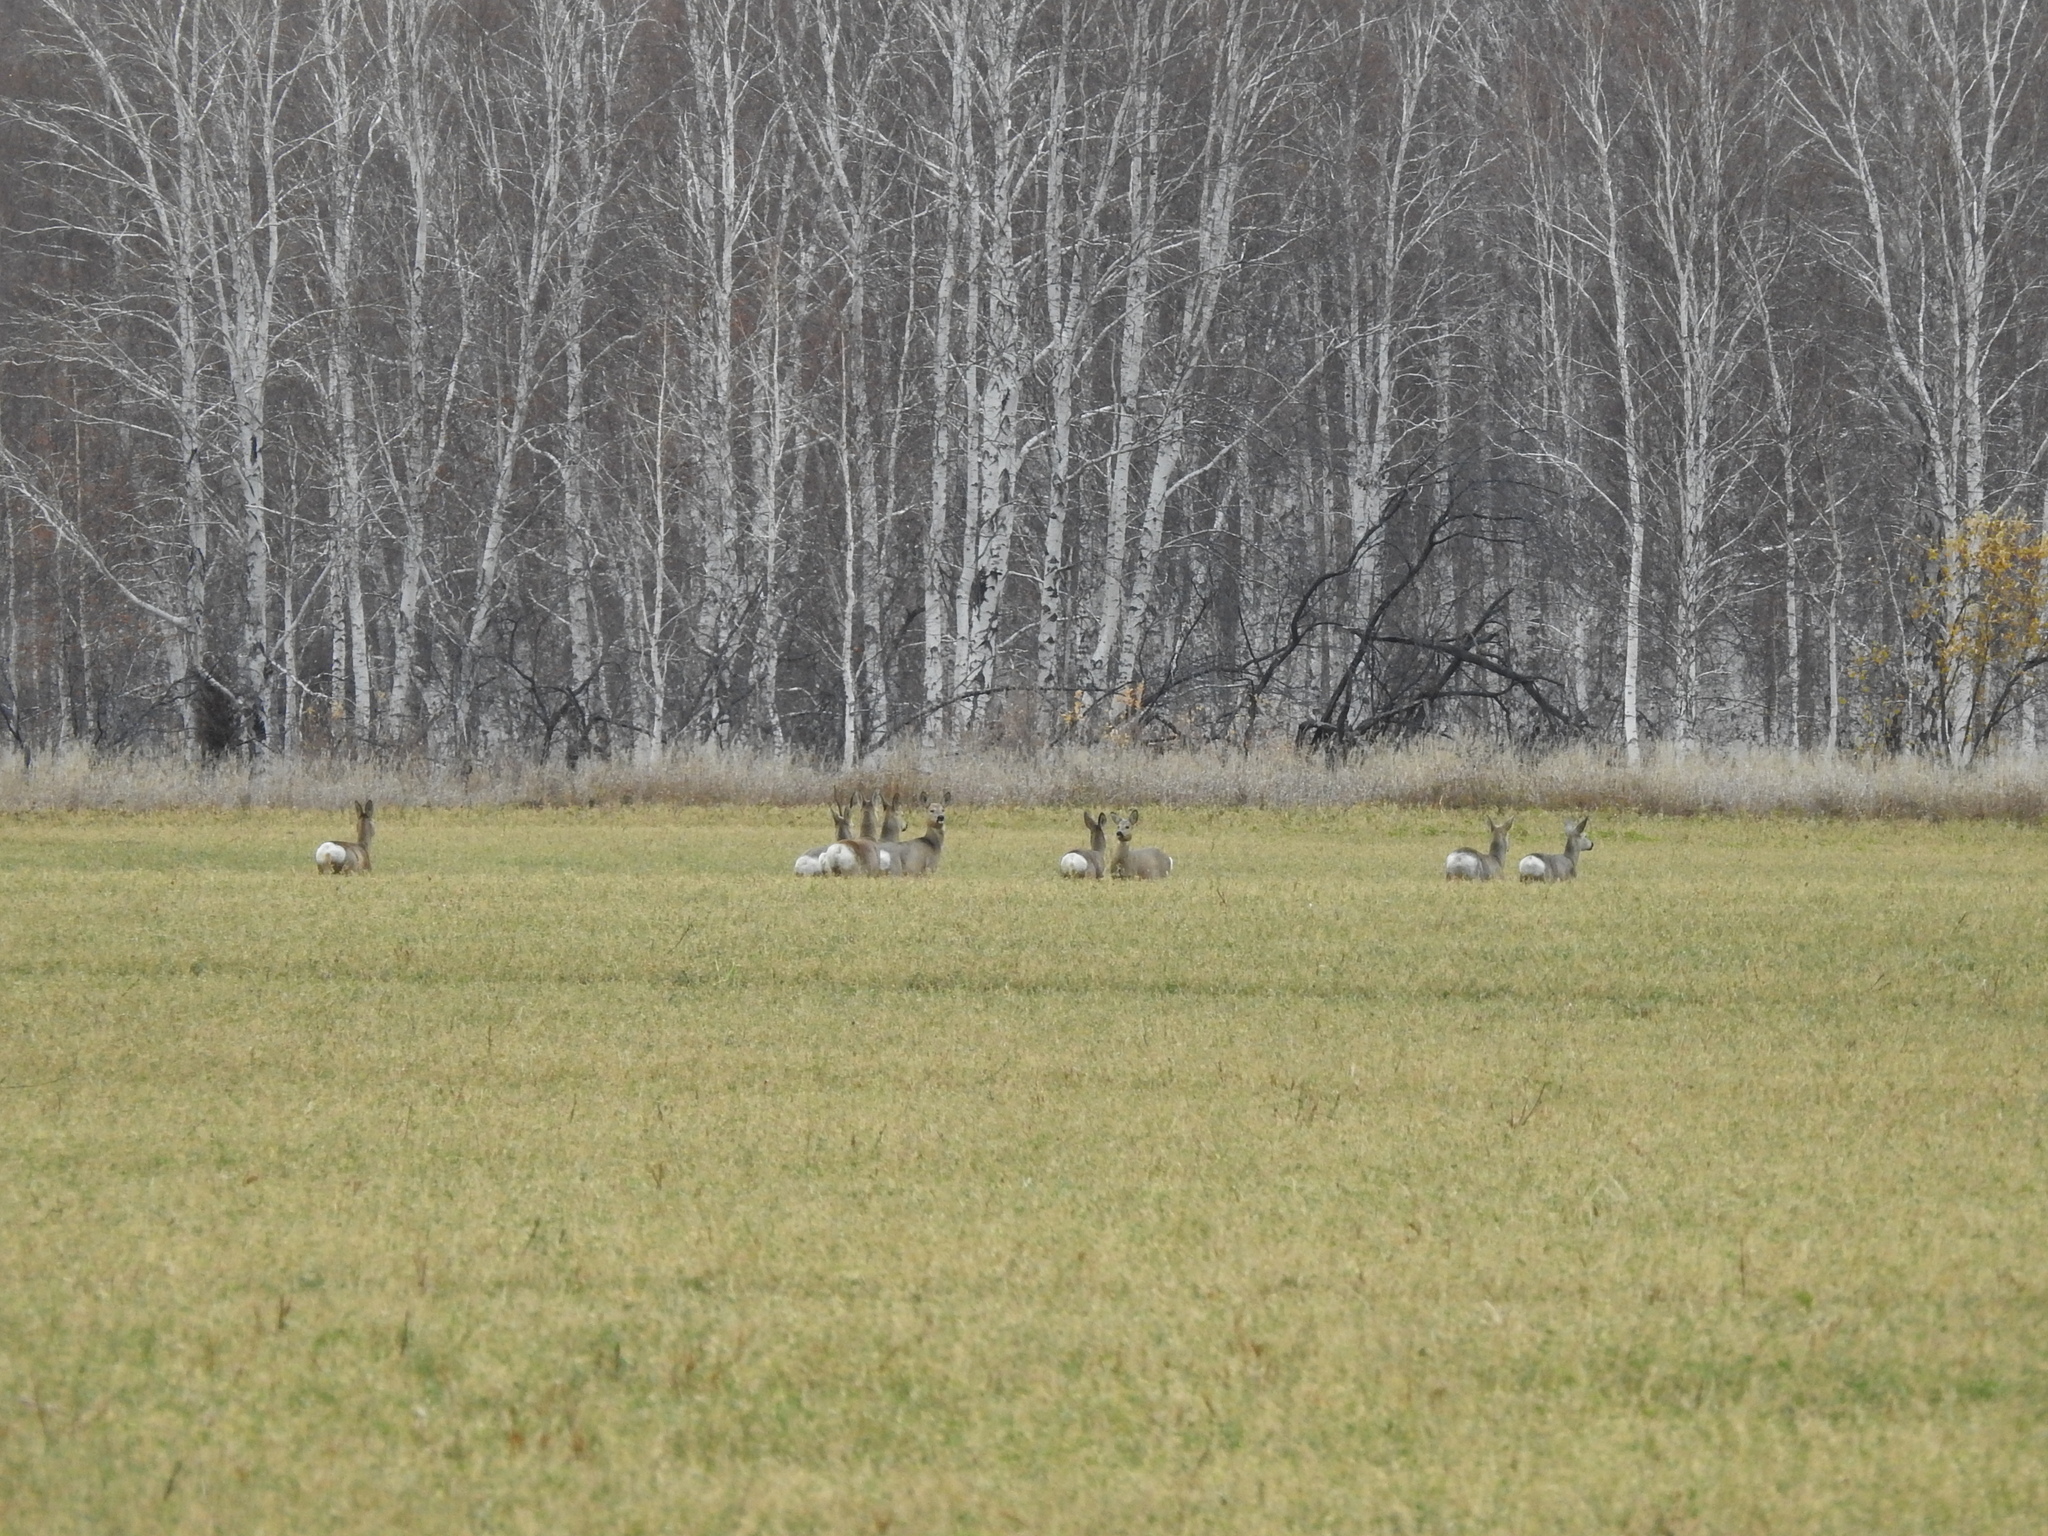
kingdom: Animalia
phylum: Chordata
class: Mammalia
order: Artiodactyla
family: Cervidae
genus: Capreolus
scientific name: Capreolus pygargus
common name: Siberian roe
